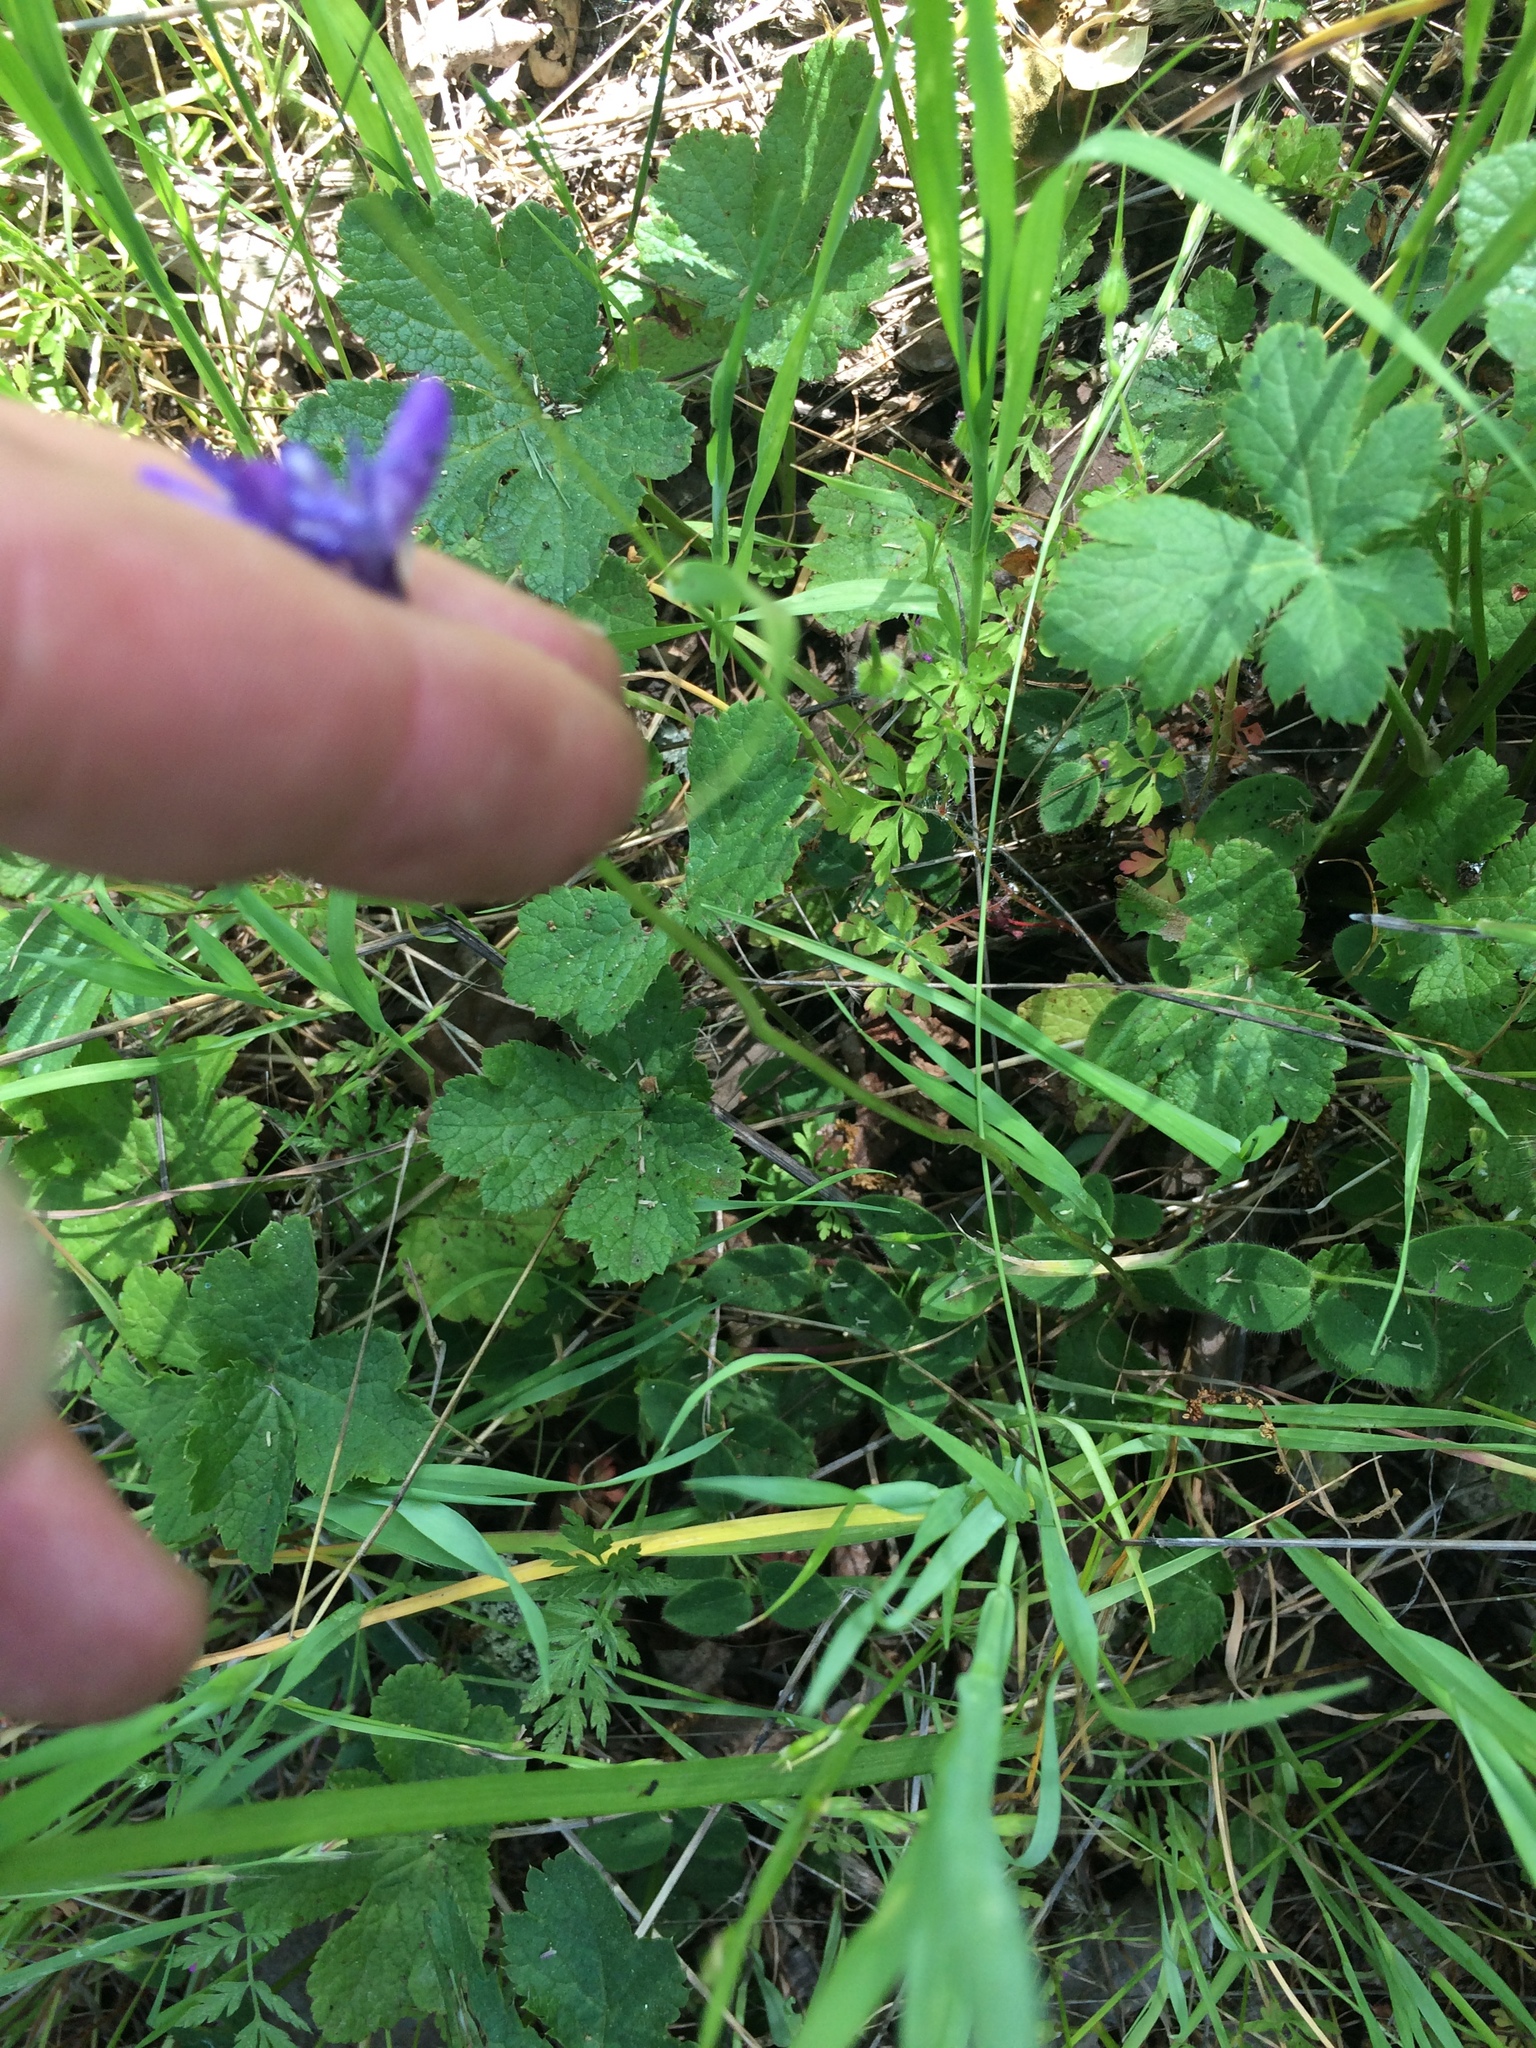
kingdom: Plantae
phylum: Tracheophyta
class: Liliopsida
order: Asparagales
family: Asparagaceae
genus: Dichelostemma
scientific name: Dichelostemma congestum
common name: Fork-tooth ookow
